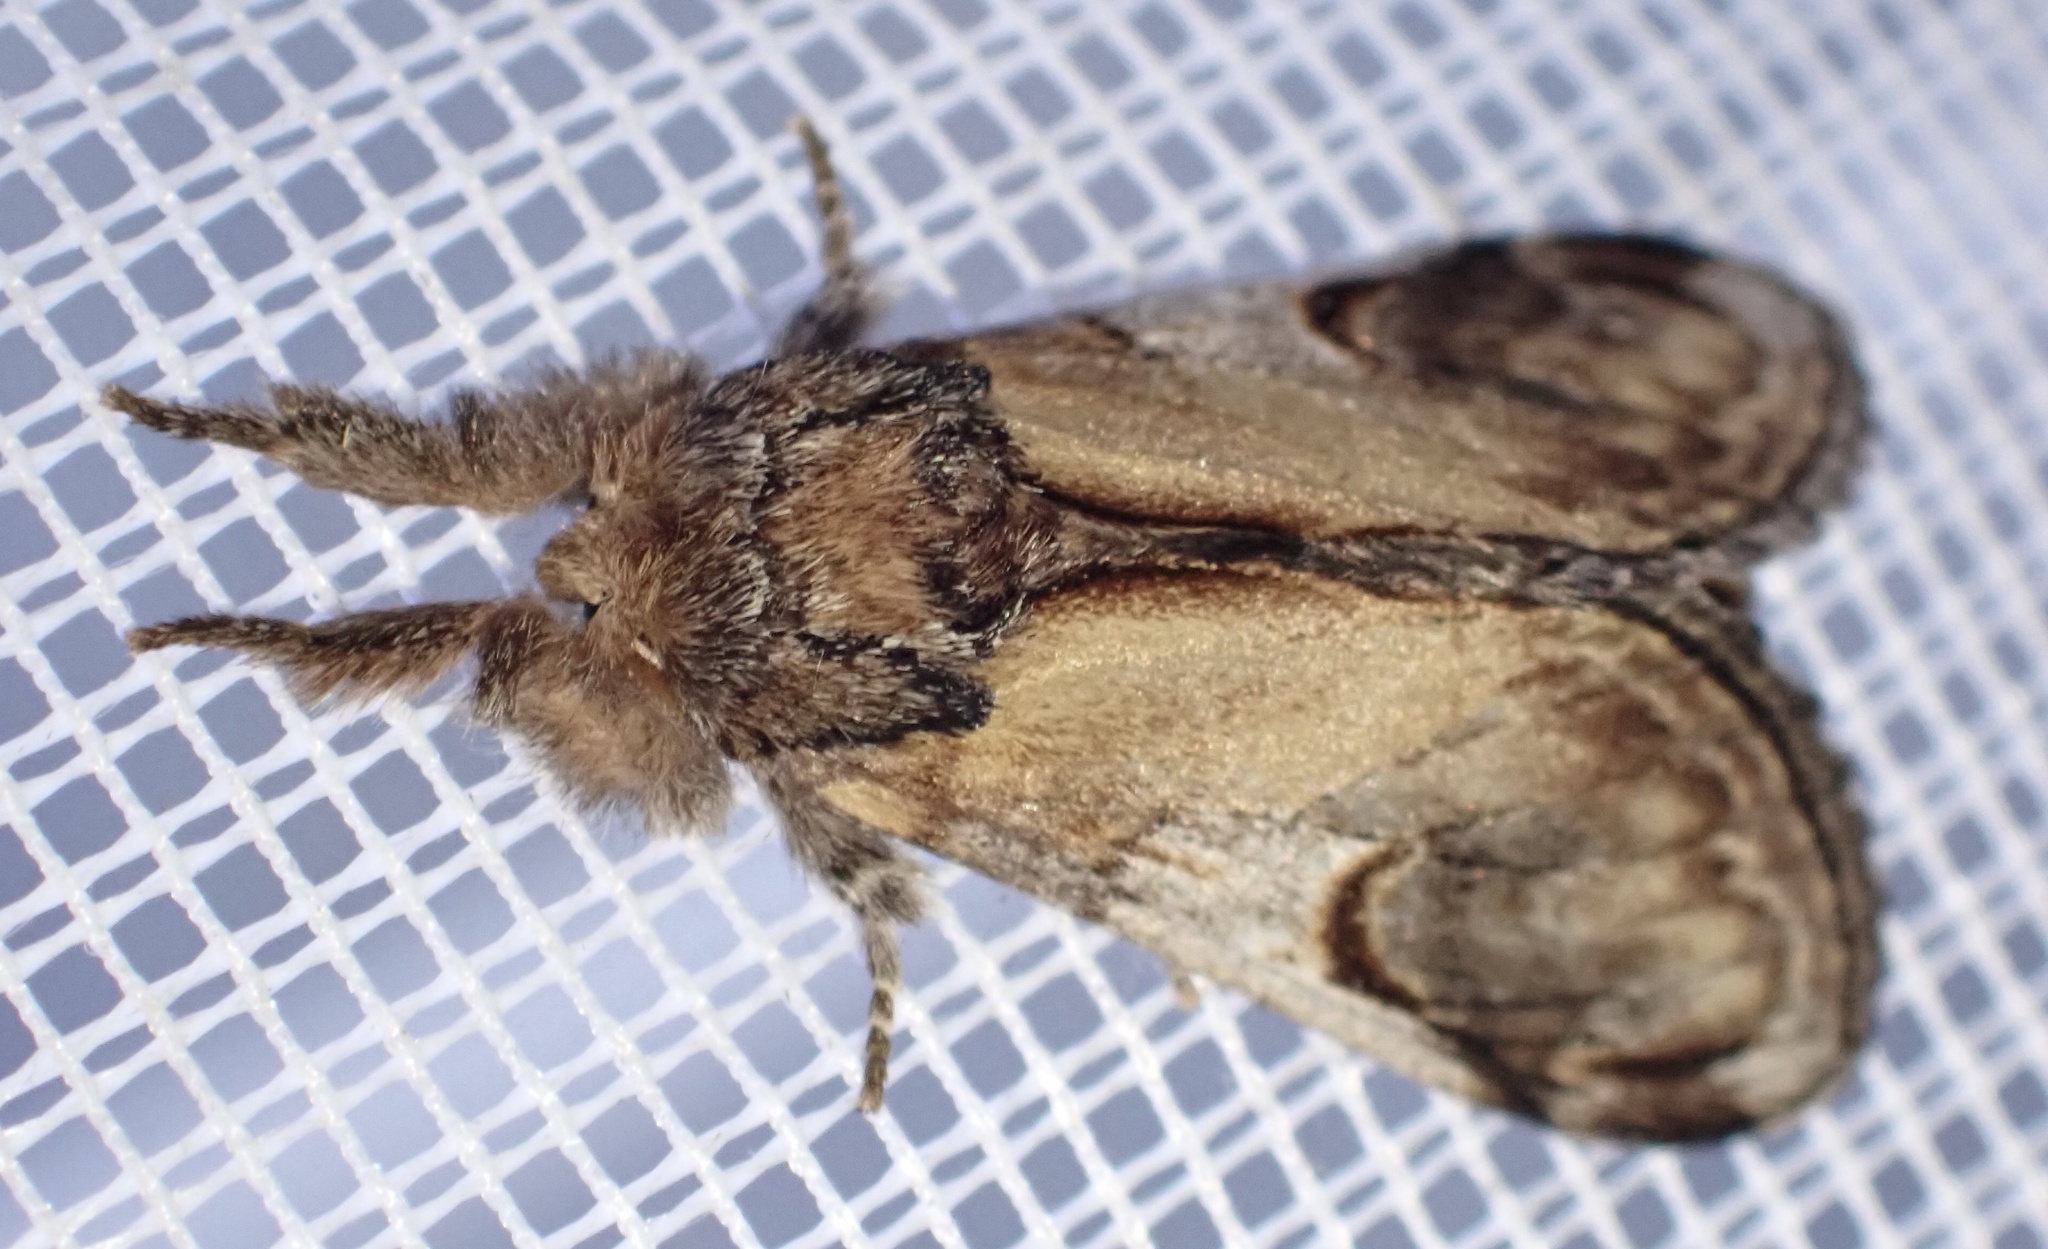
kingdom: Animalia
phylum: Arthropoda
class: Insecta
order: Lepidoptera
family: Notodontidae
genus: Notodonta
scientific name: Notodonta ziczac
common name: Pebble prominent
